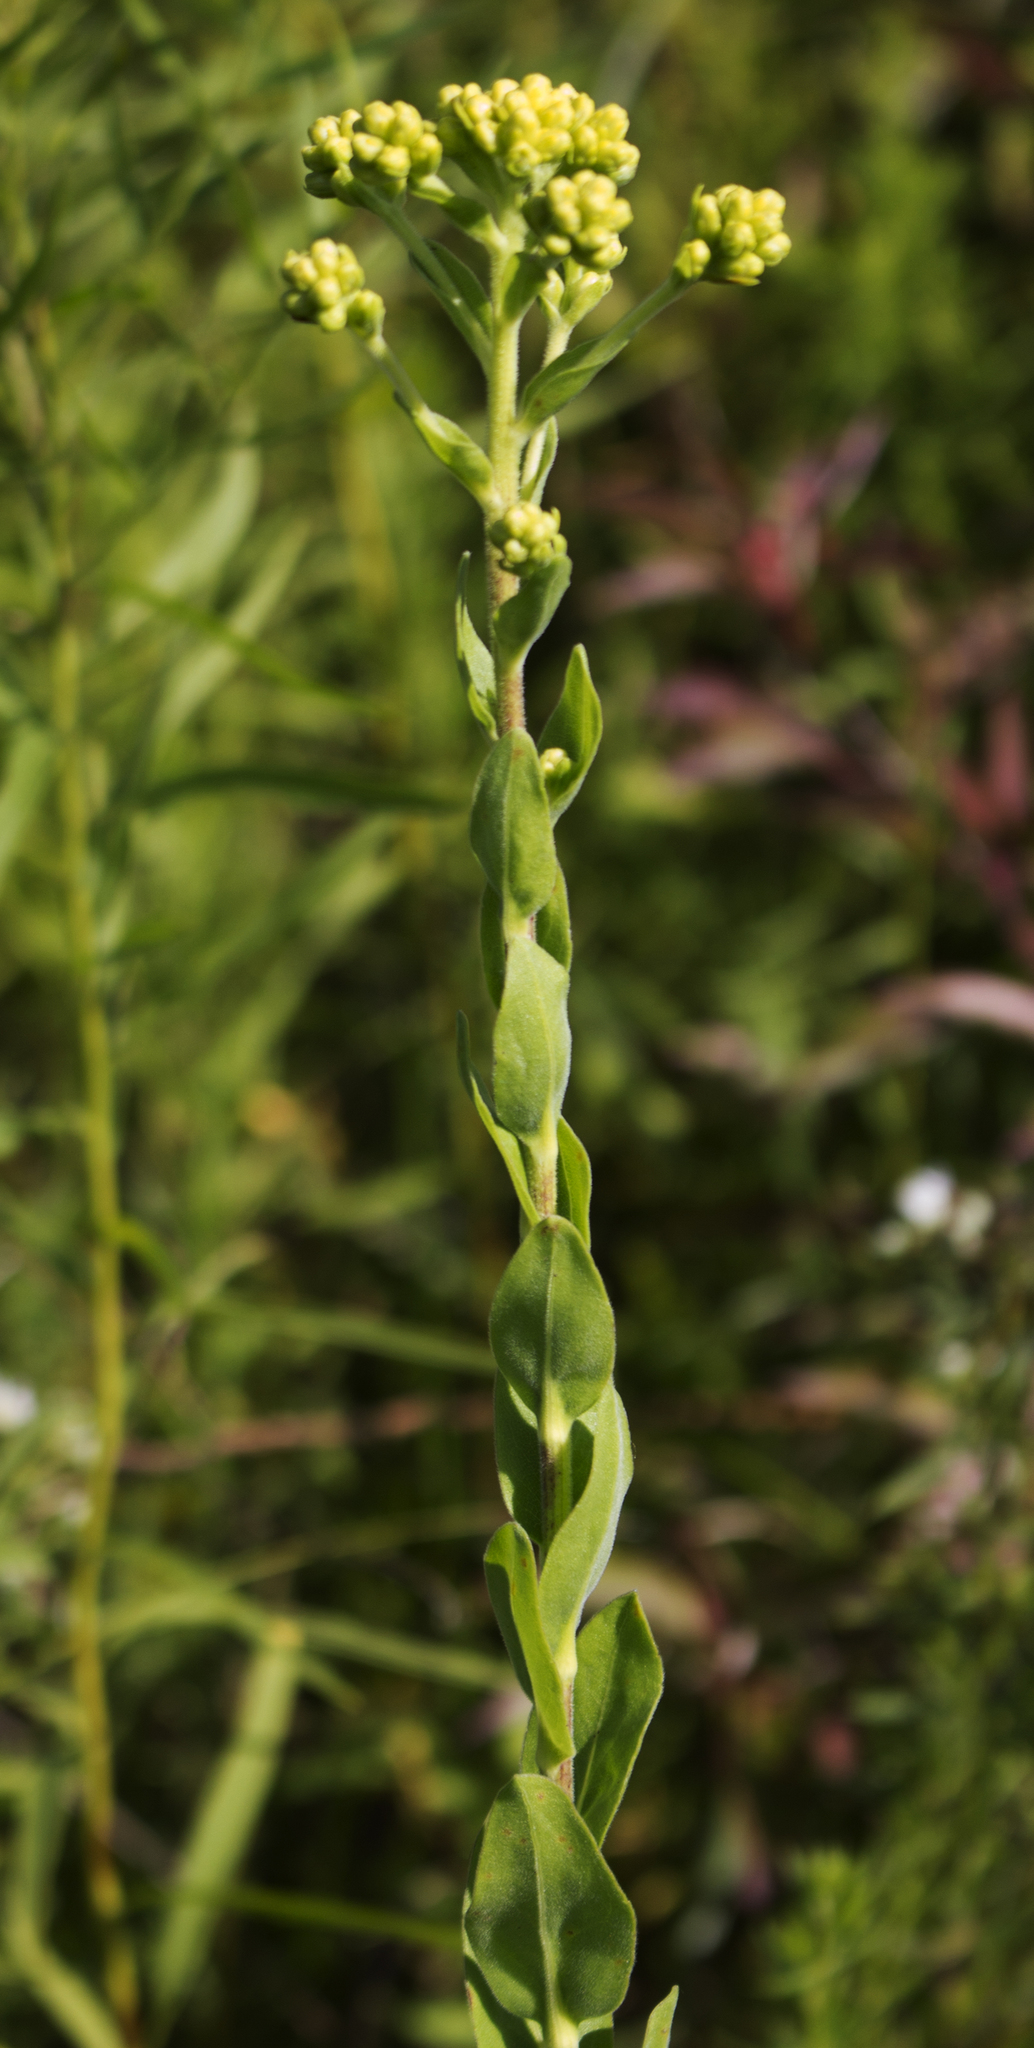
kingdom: Plantae
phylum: Tracheophyta
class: Magnoliopsida
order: Asterales
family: Asteraceae
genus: Solidago
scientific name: Solidago rigida
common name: Rigid goldenrod
